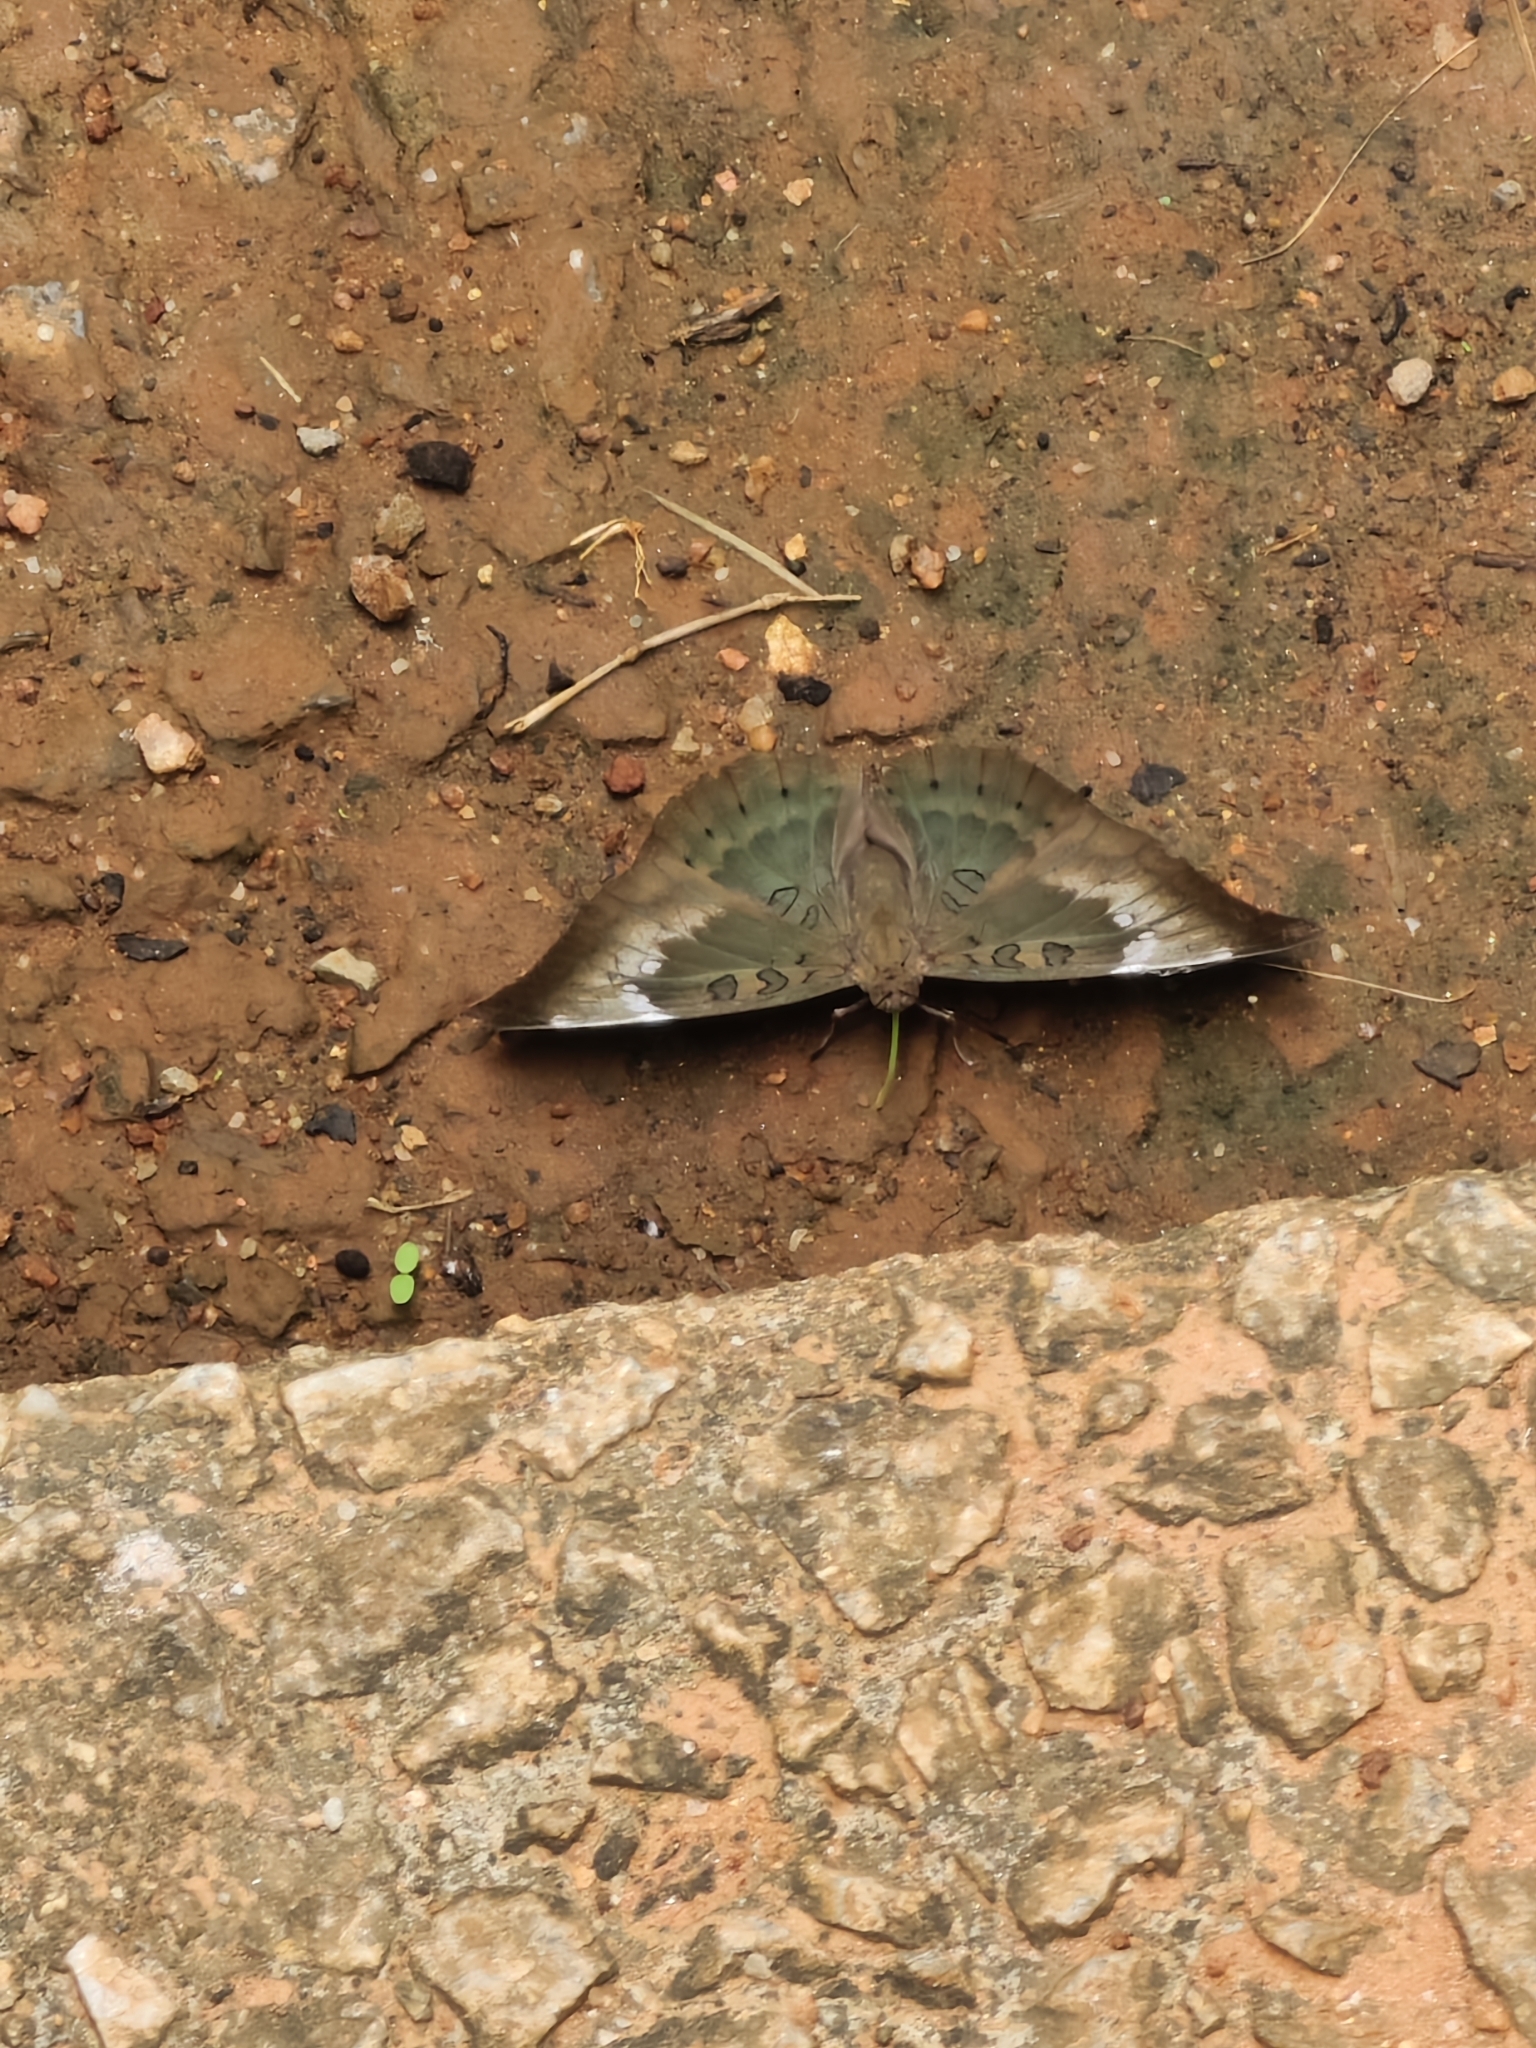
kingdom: Animalia
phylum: Arthropoda
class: Insecta
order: Lepidoptera
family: Nymphalidae
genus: Euthalia
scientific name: Euthalia aconthea
